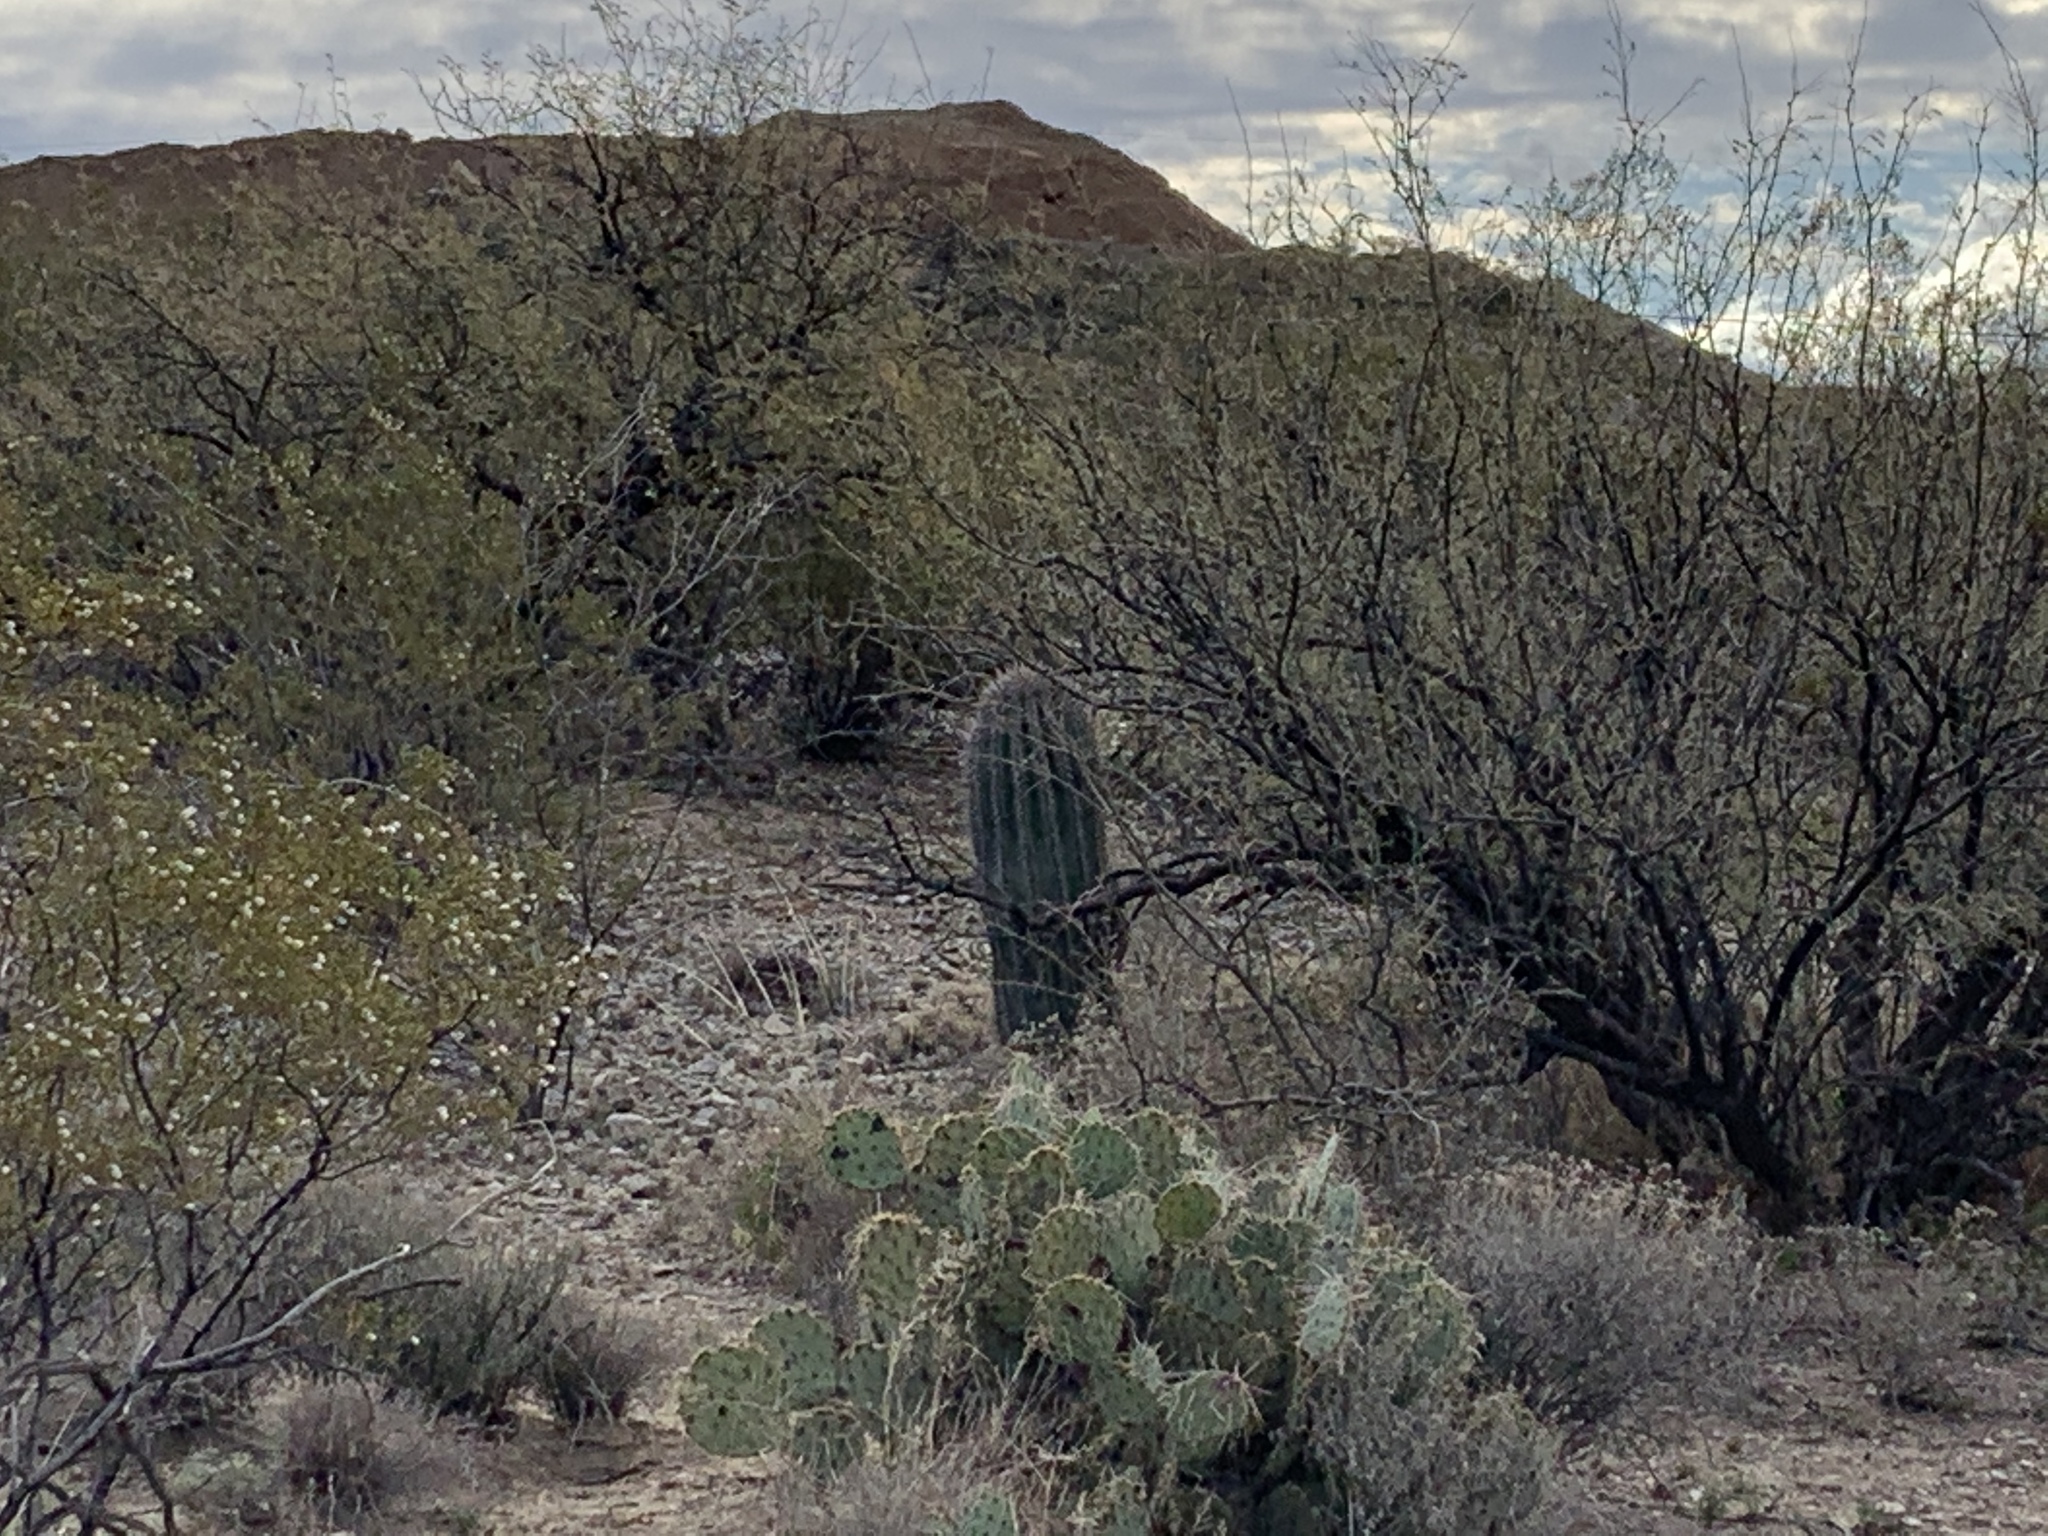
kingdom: Plantae
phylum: Tracheophyta
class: Magnoliopsida
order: Caryophyllales
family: Cactaceae
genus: Carnegiea
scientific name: Carnegiea gigantea
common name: Saguaro
